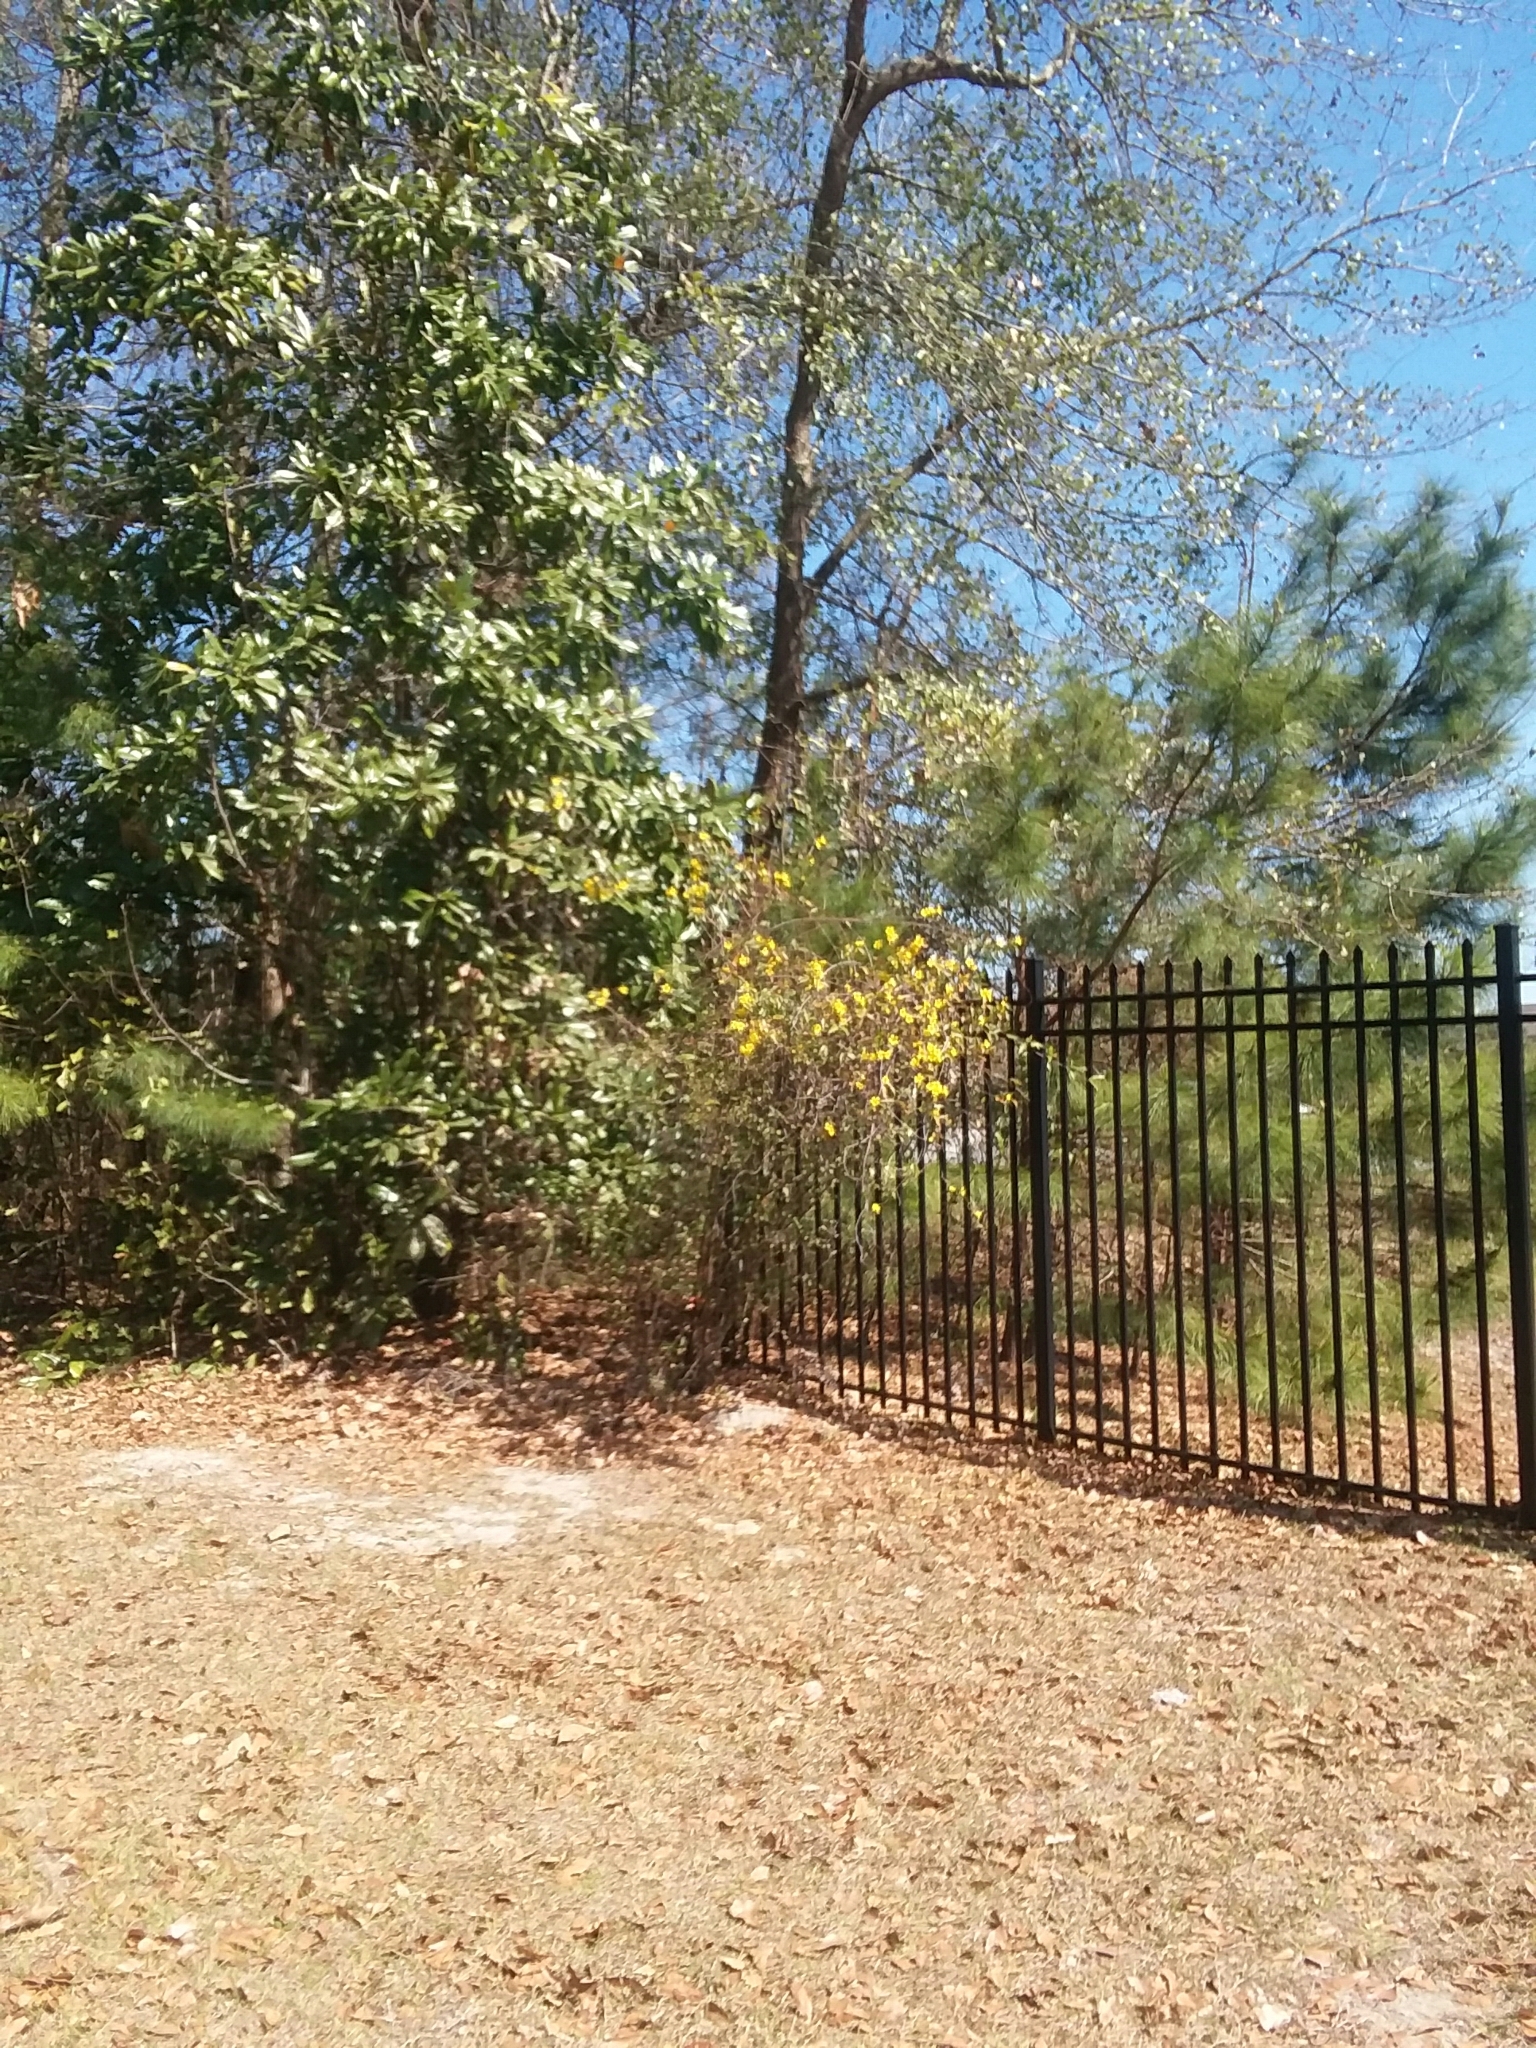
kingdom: Plantae
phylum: Tracheophyta
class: Magnoliopsida
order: Gentianales
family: Gelsemiaceae
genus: Gelsemium
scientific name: Gelsemium sempervirens
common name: Carolina-jasmine
